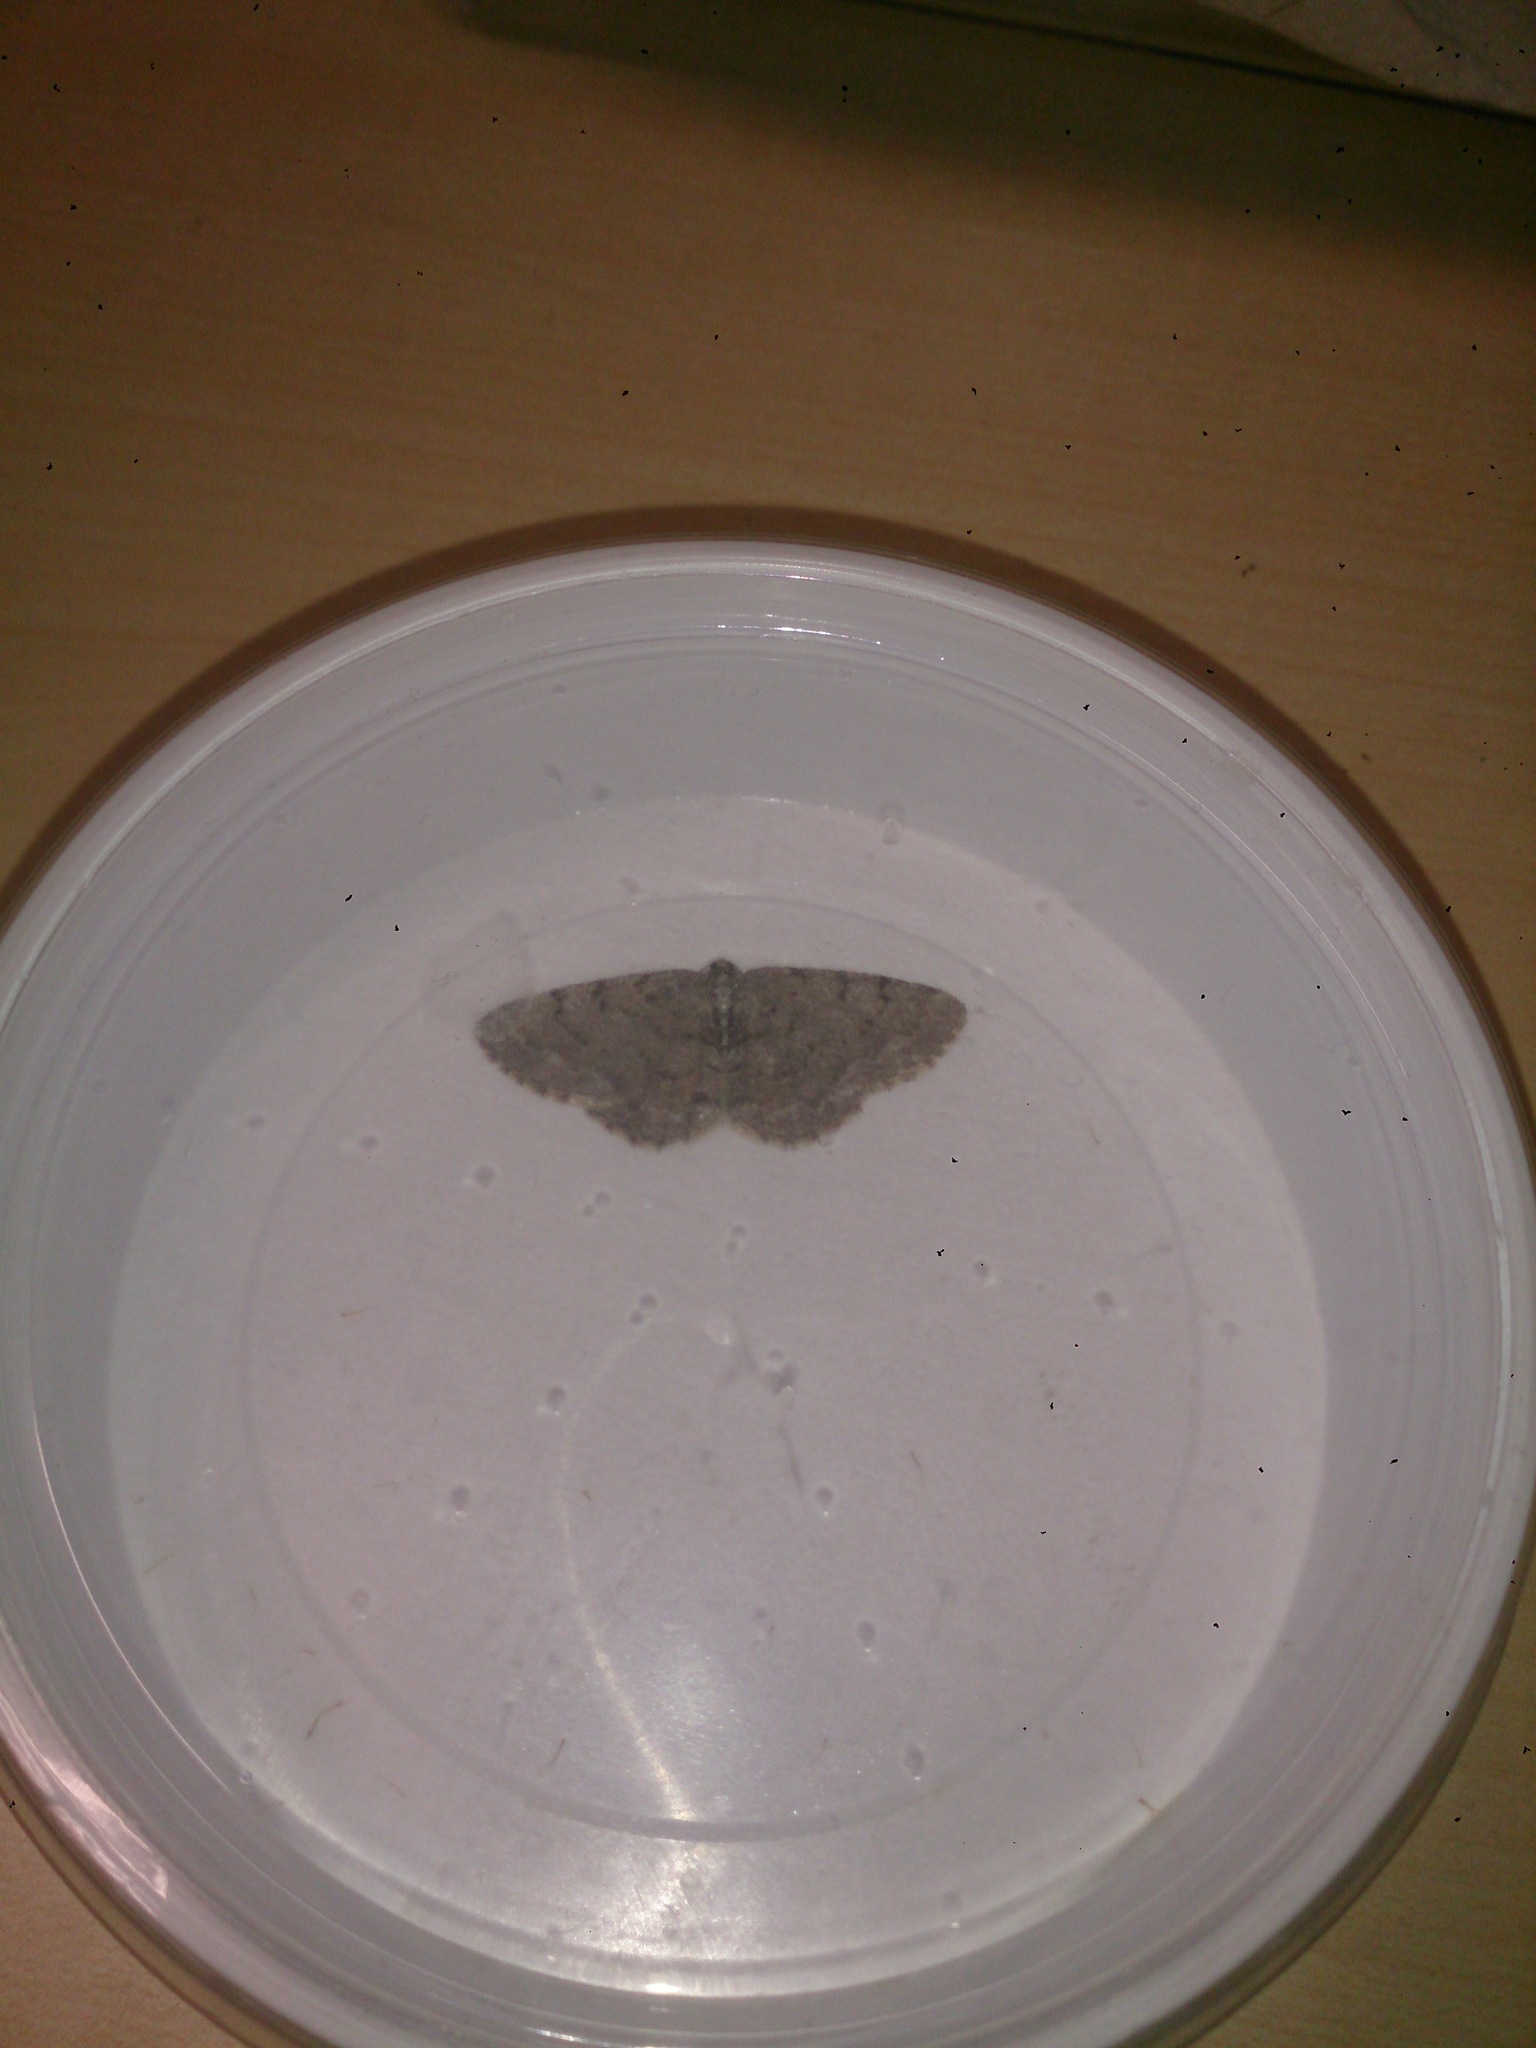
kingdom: Animalia
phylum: Arthropoda
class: Insecta
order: Lepidoptera
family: Geometridae
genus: Aethalura
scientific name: Aethalura punctulata
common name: Grey birch
